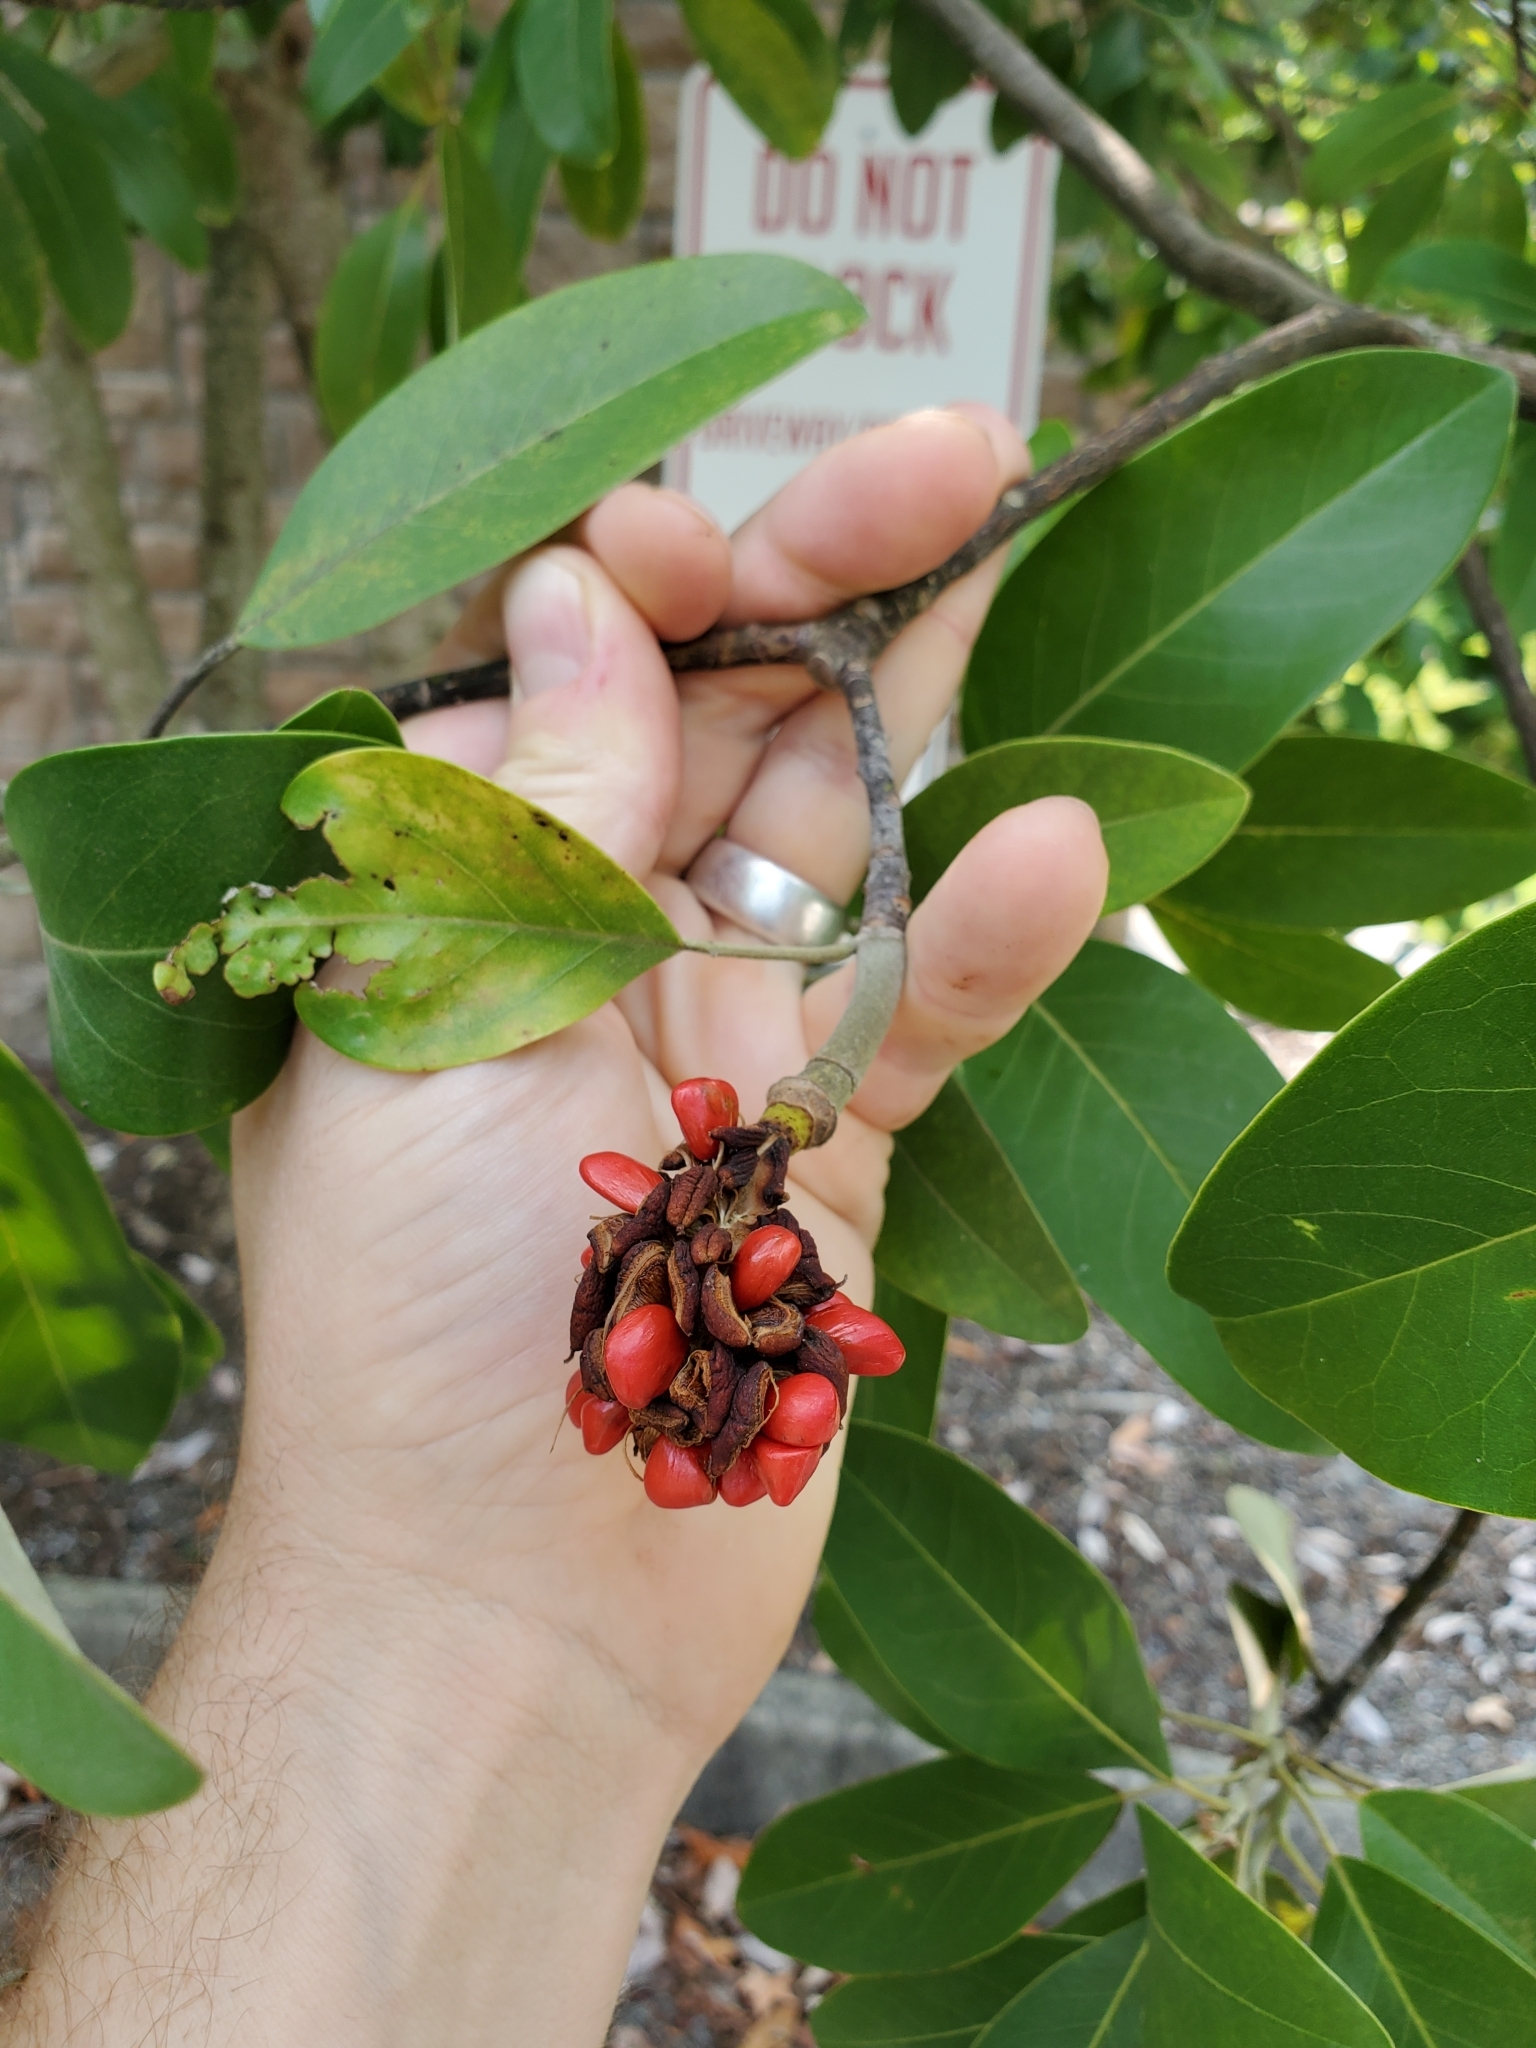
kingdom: Plantae
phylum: Tracheophyta
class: Magnoliopsida
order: Magnoliales
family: Magnoliaceae
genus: Magnolia
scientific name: Magnolia virginiana
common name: Swamp bay
